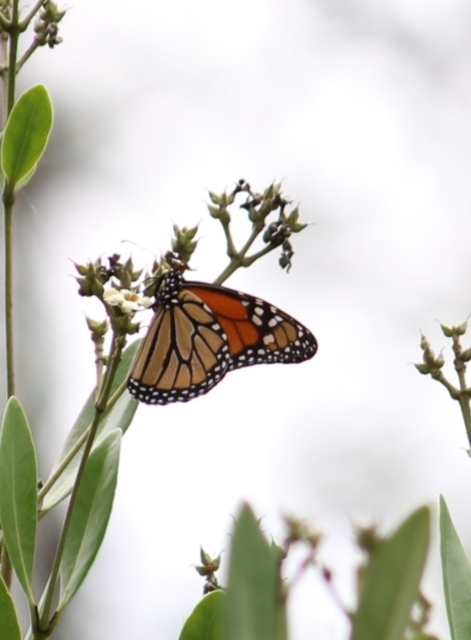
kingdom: Animalia
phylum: Arthropoda
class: Insecta
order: Lepidoptera
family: Nymphalidae
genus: Danaus
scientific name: Danaus plexippus
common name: Monarch
